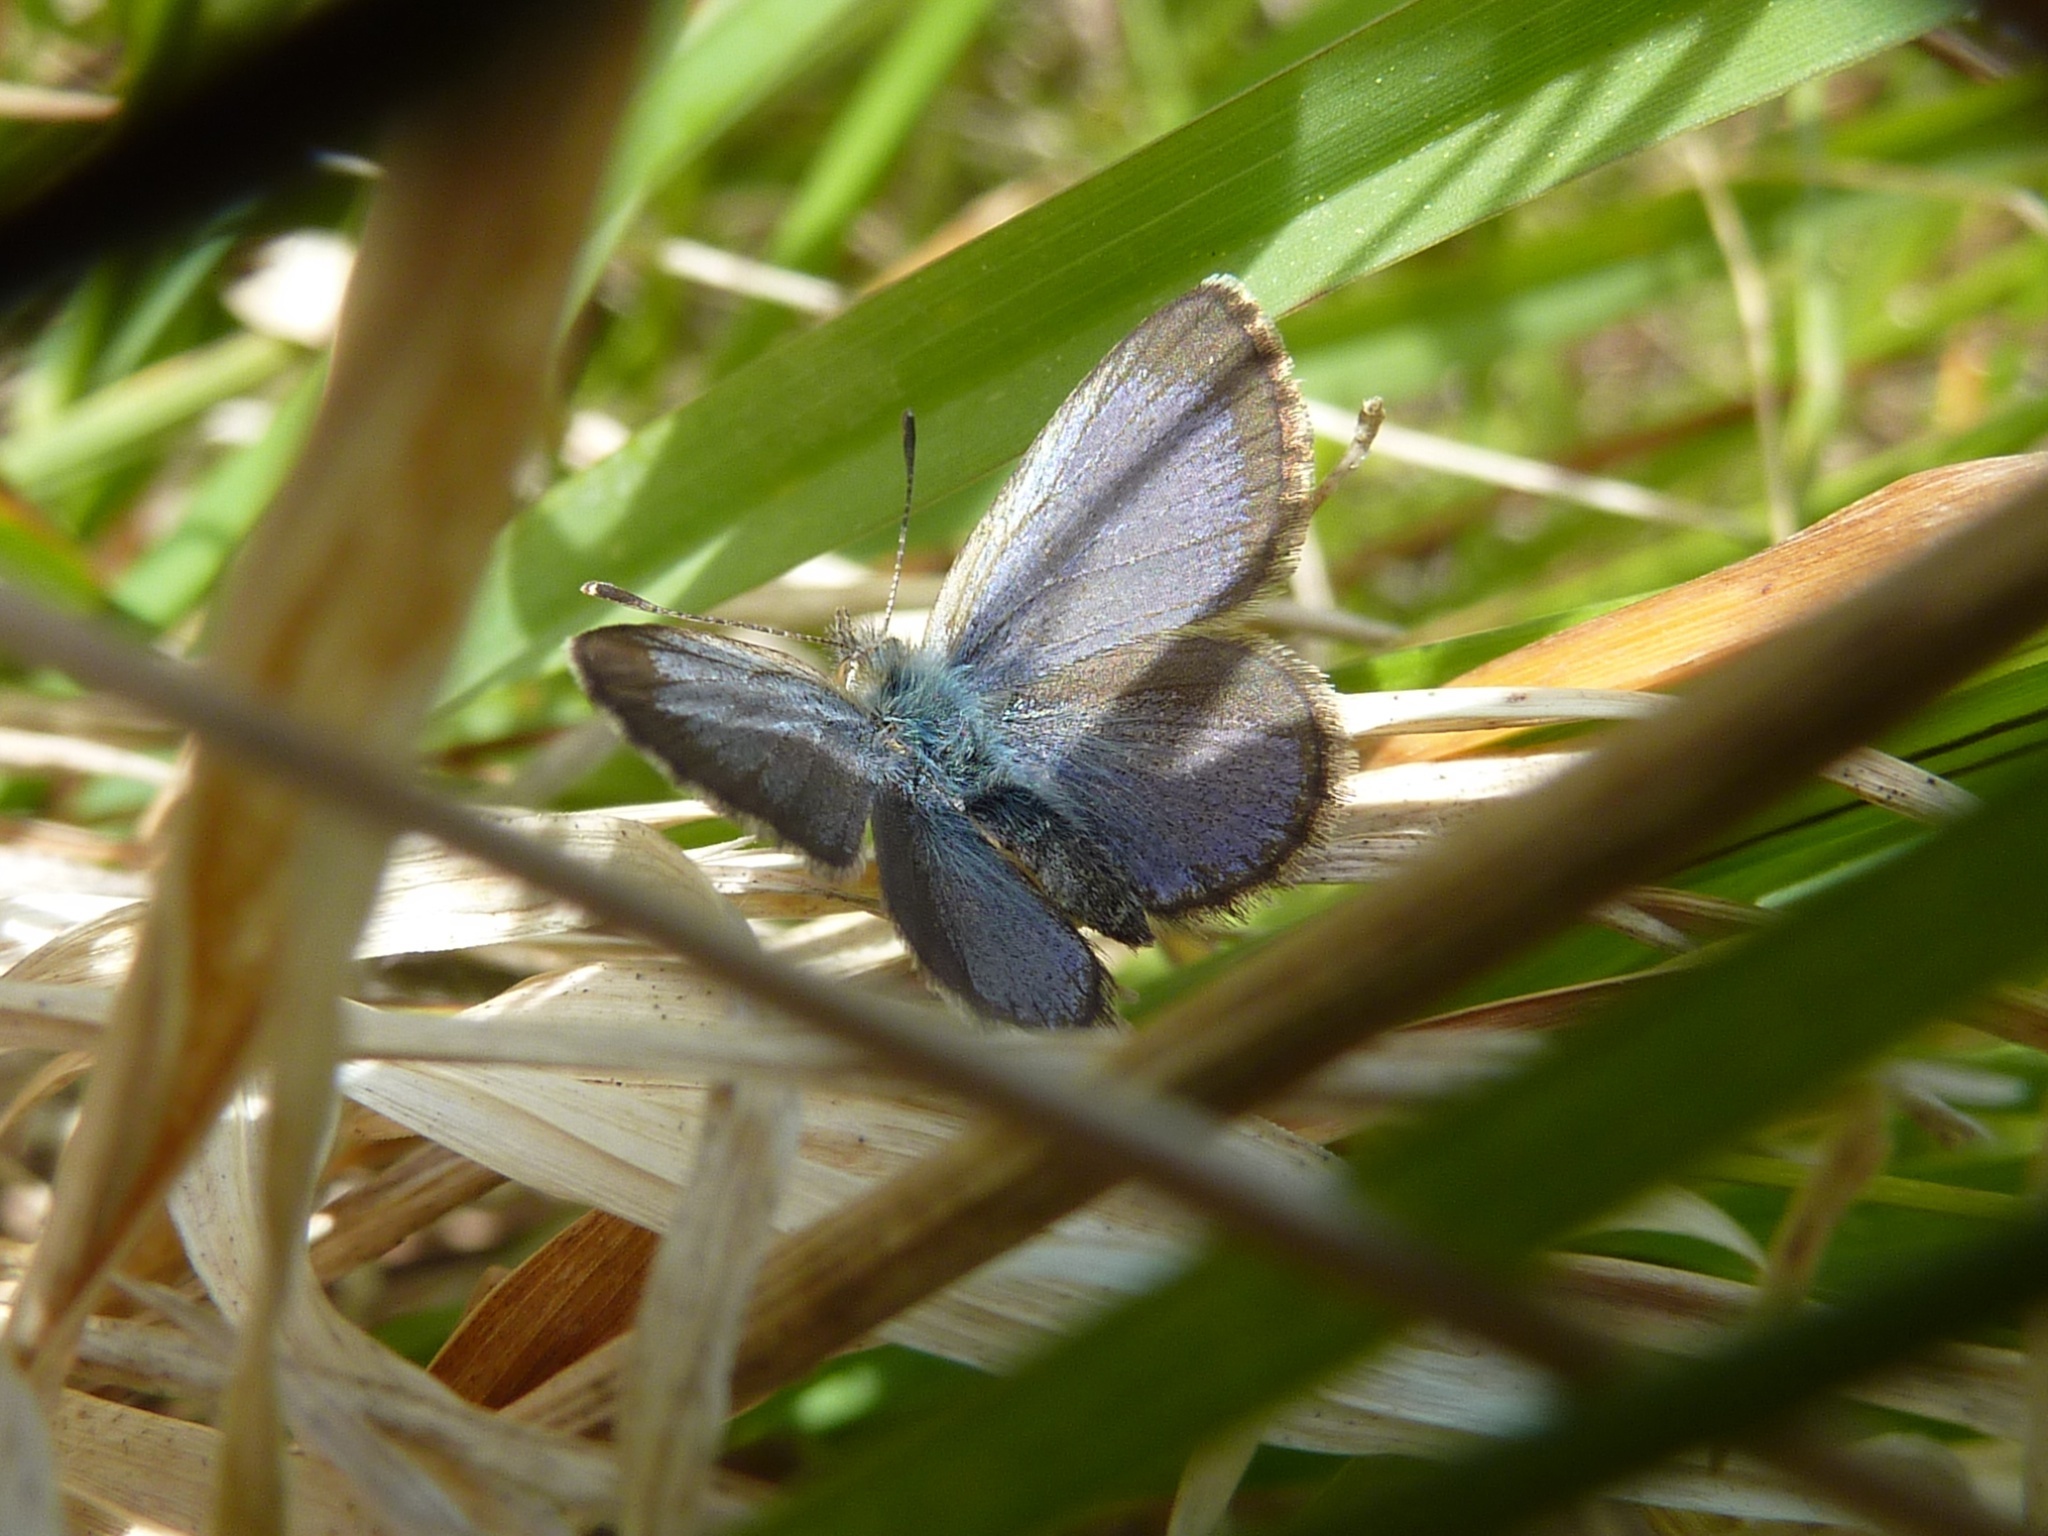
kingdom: Animalia
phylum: Arthropoda
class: Insecta
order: Lepidoptera
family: Lycaenidae
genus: Zizina
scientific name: Zizina oxleyi
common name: Southern blue
